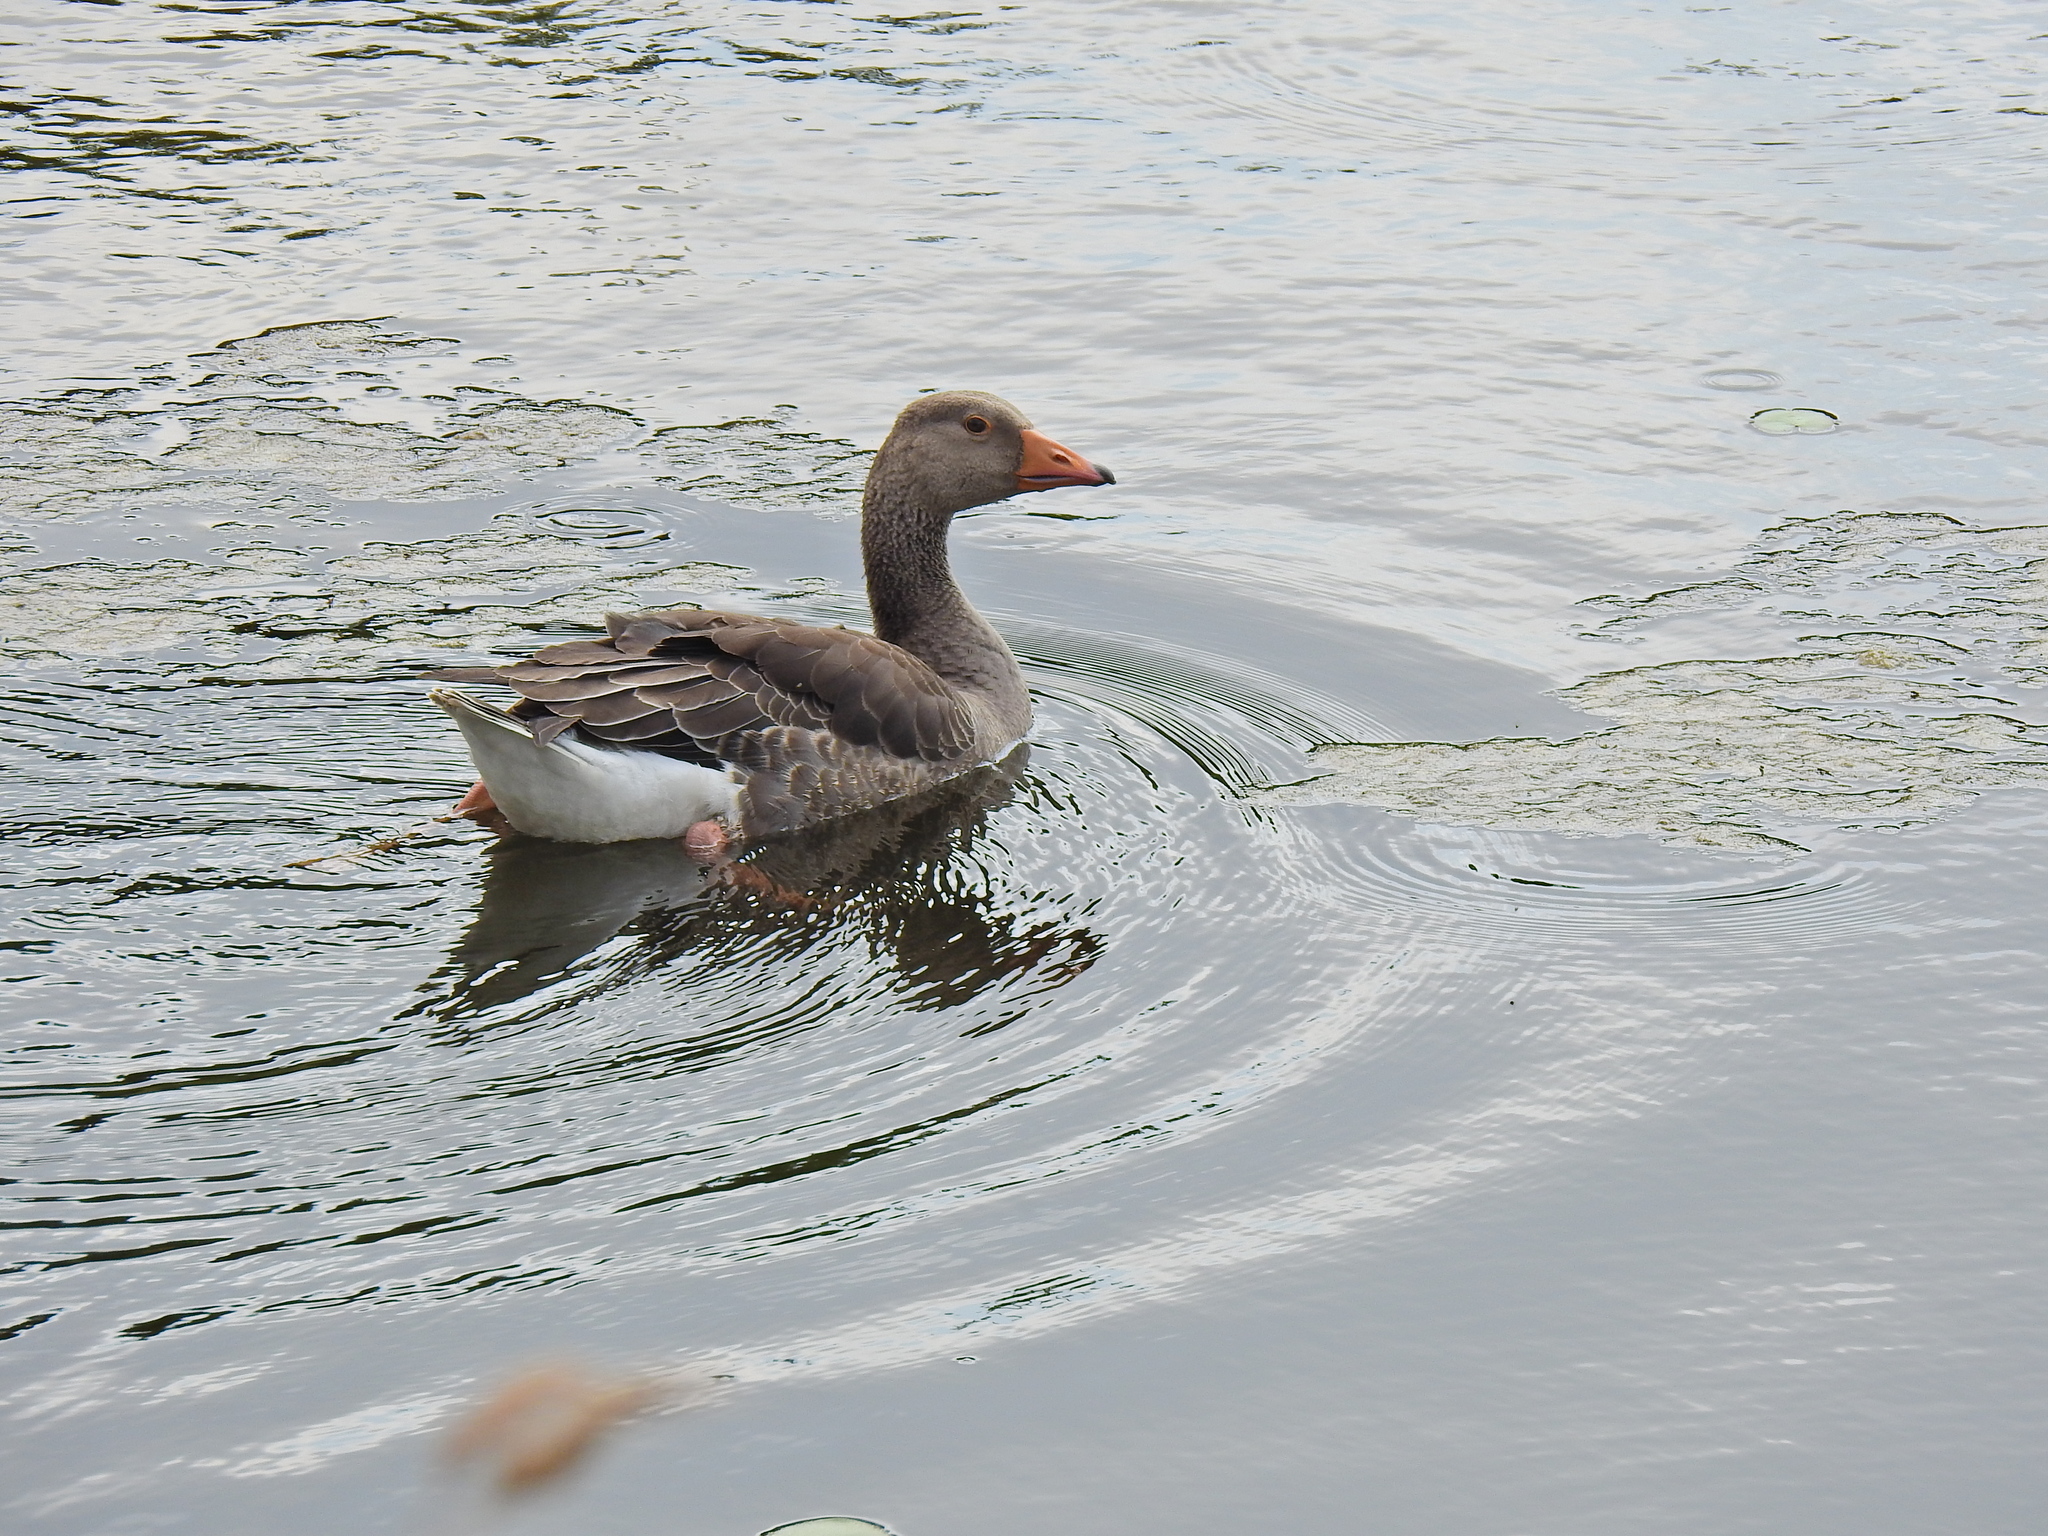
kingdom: Animalia
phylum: Chordata
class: Aves
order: Anseriformes
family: Anatidae
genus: Anser
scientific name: Anser anser
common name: Greylag goose
